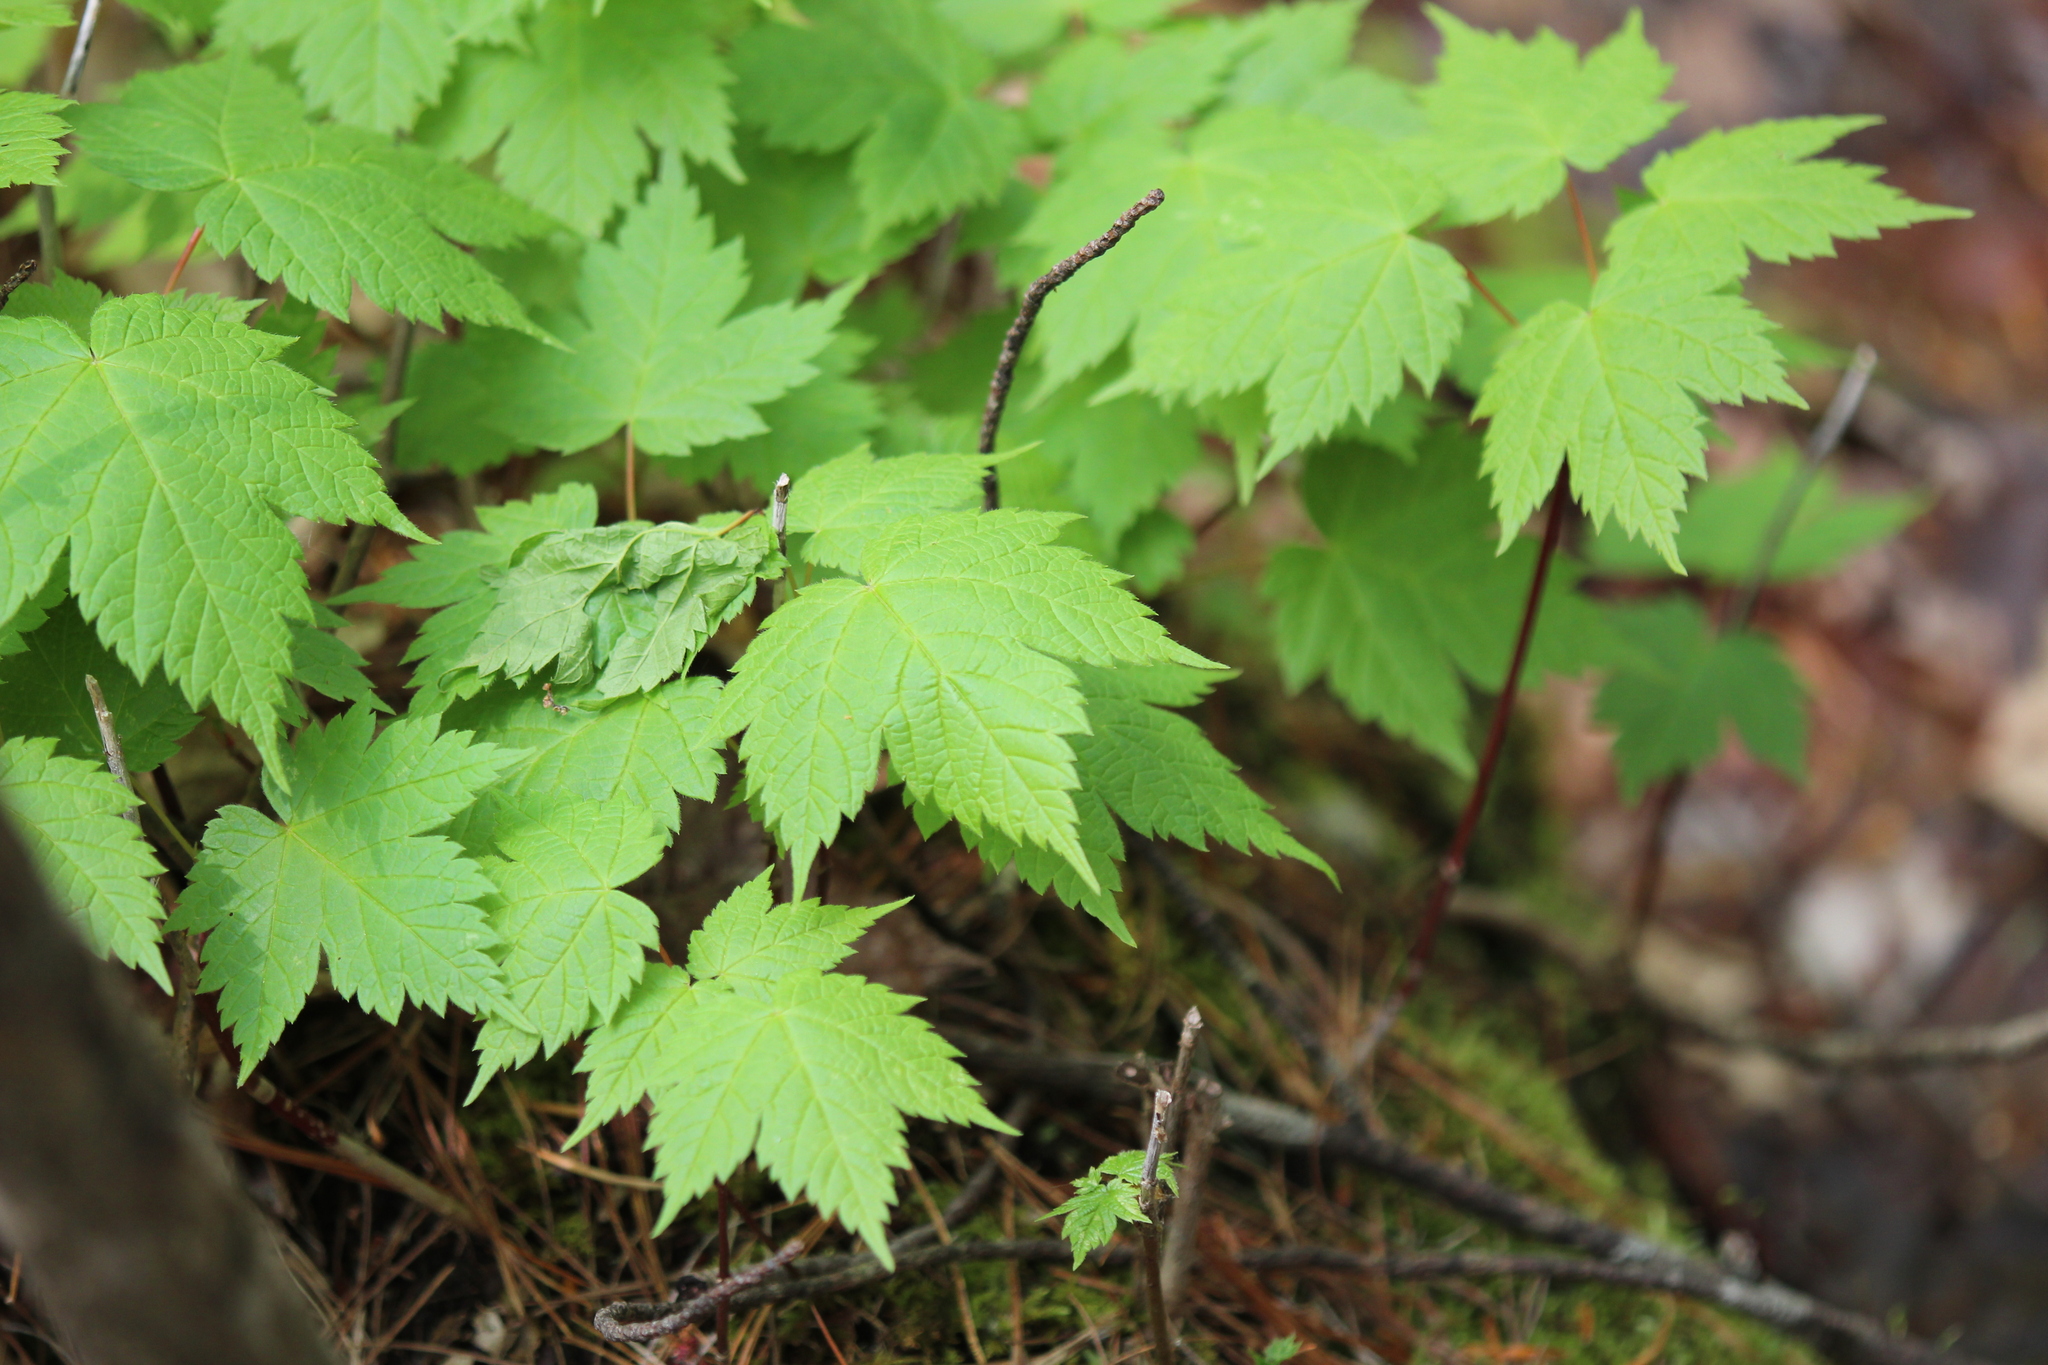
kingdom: Plantae
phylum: Tracheophyta
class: Magnoliopsida
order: Sapindales
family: Sapindaceae
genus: Acer
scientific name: Acer spicatum
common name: Mountain maple
